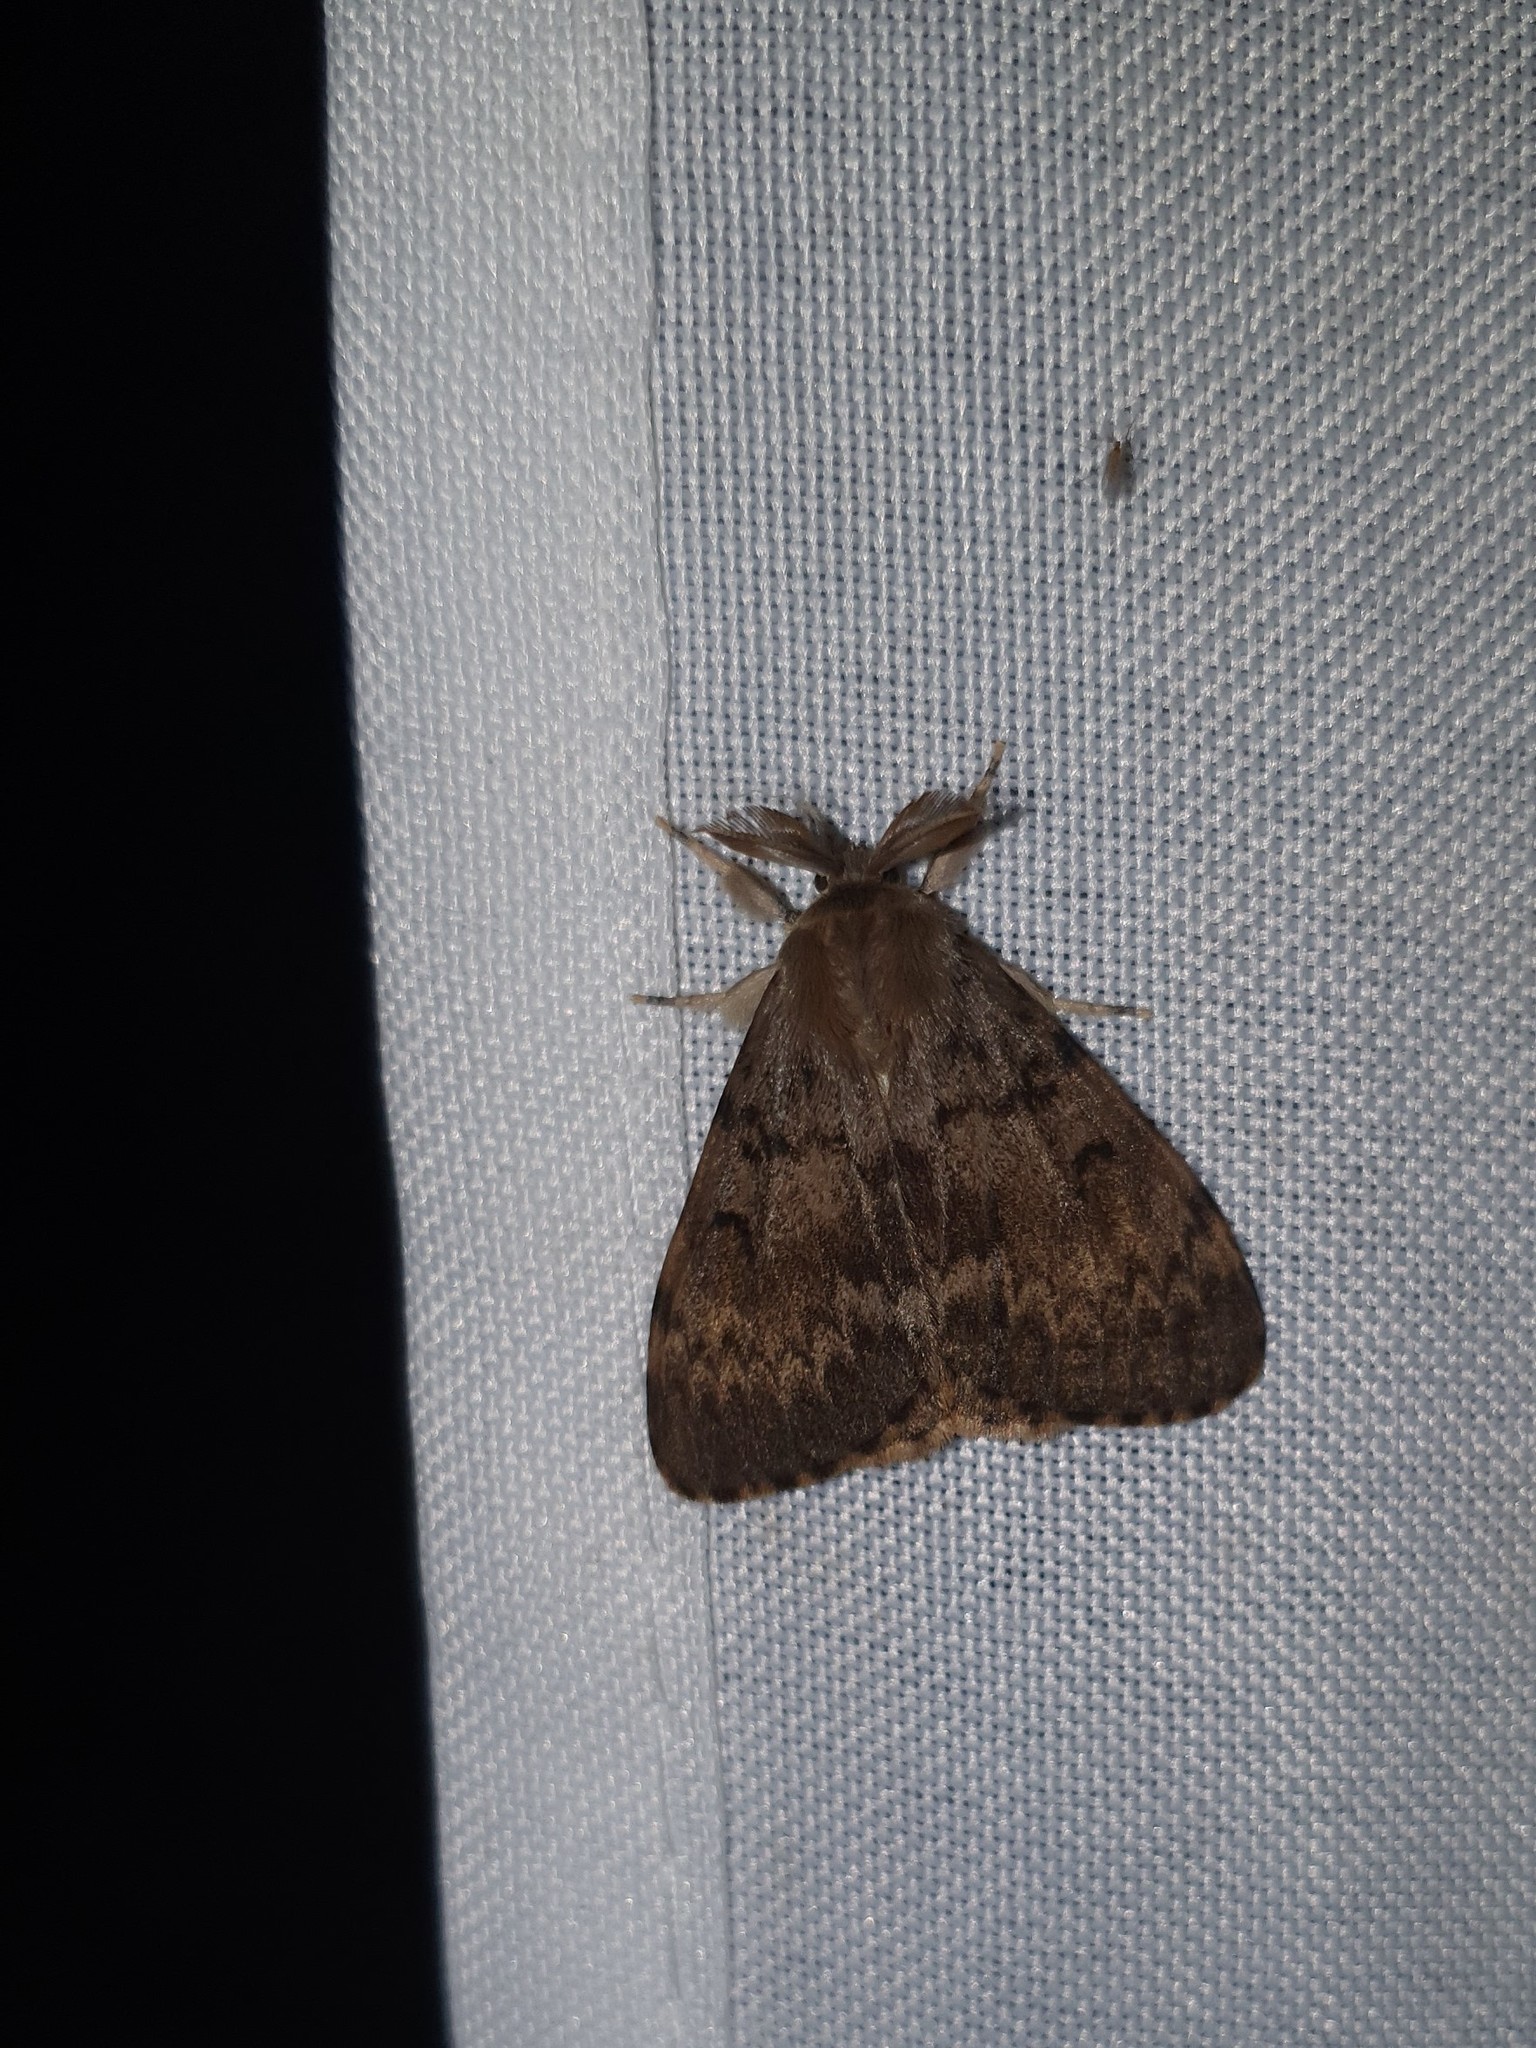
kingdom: Animalia
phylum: Arthropoda
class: Insecta
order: Lepidoptera
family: Erebidae
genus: Lymantria
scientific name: Lymantria dispar
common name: Gypsy moth
